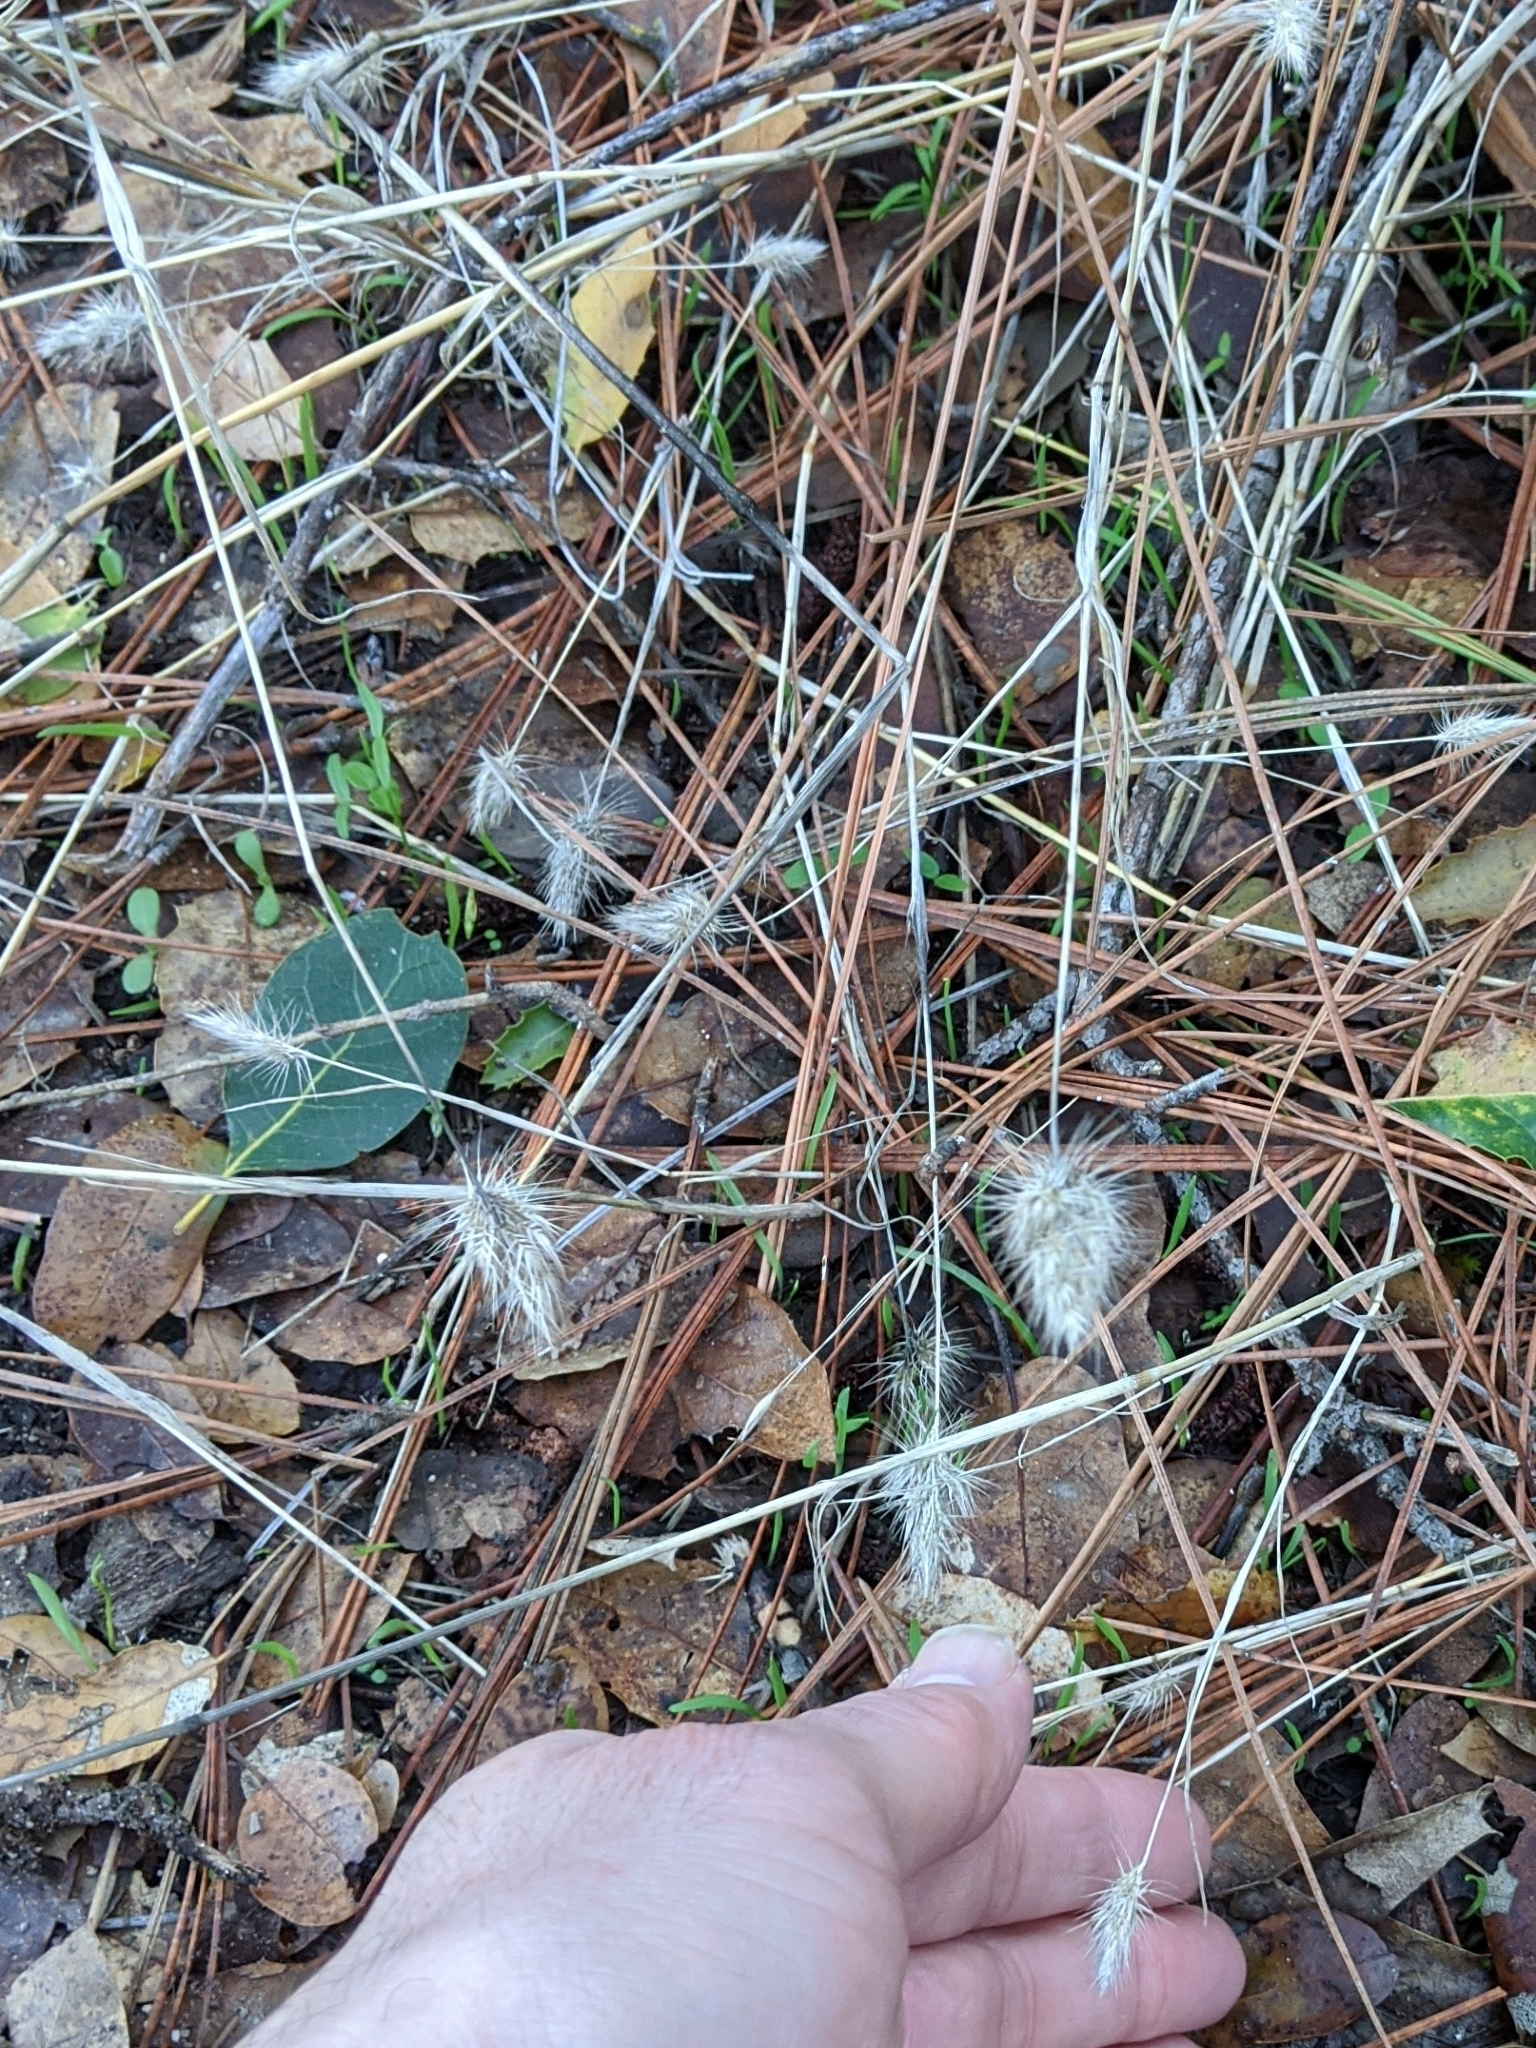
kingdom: Plantae
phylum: Tracheophyta
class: Liliopsida
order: Poales
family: Poaceae
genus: Cynosurus
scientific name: Cynosurus echinatus
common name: Rough dog's-tail
